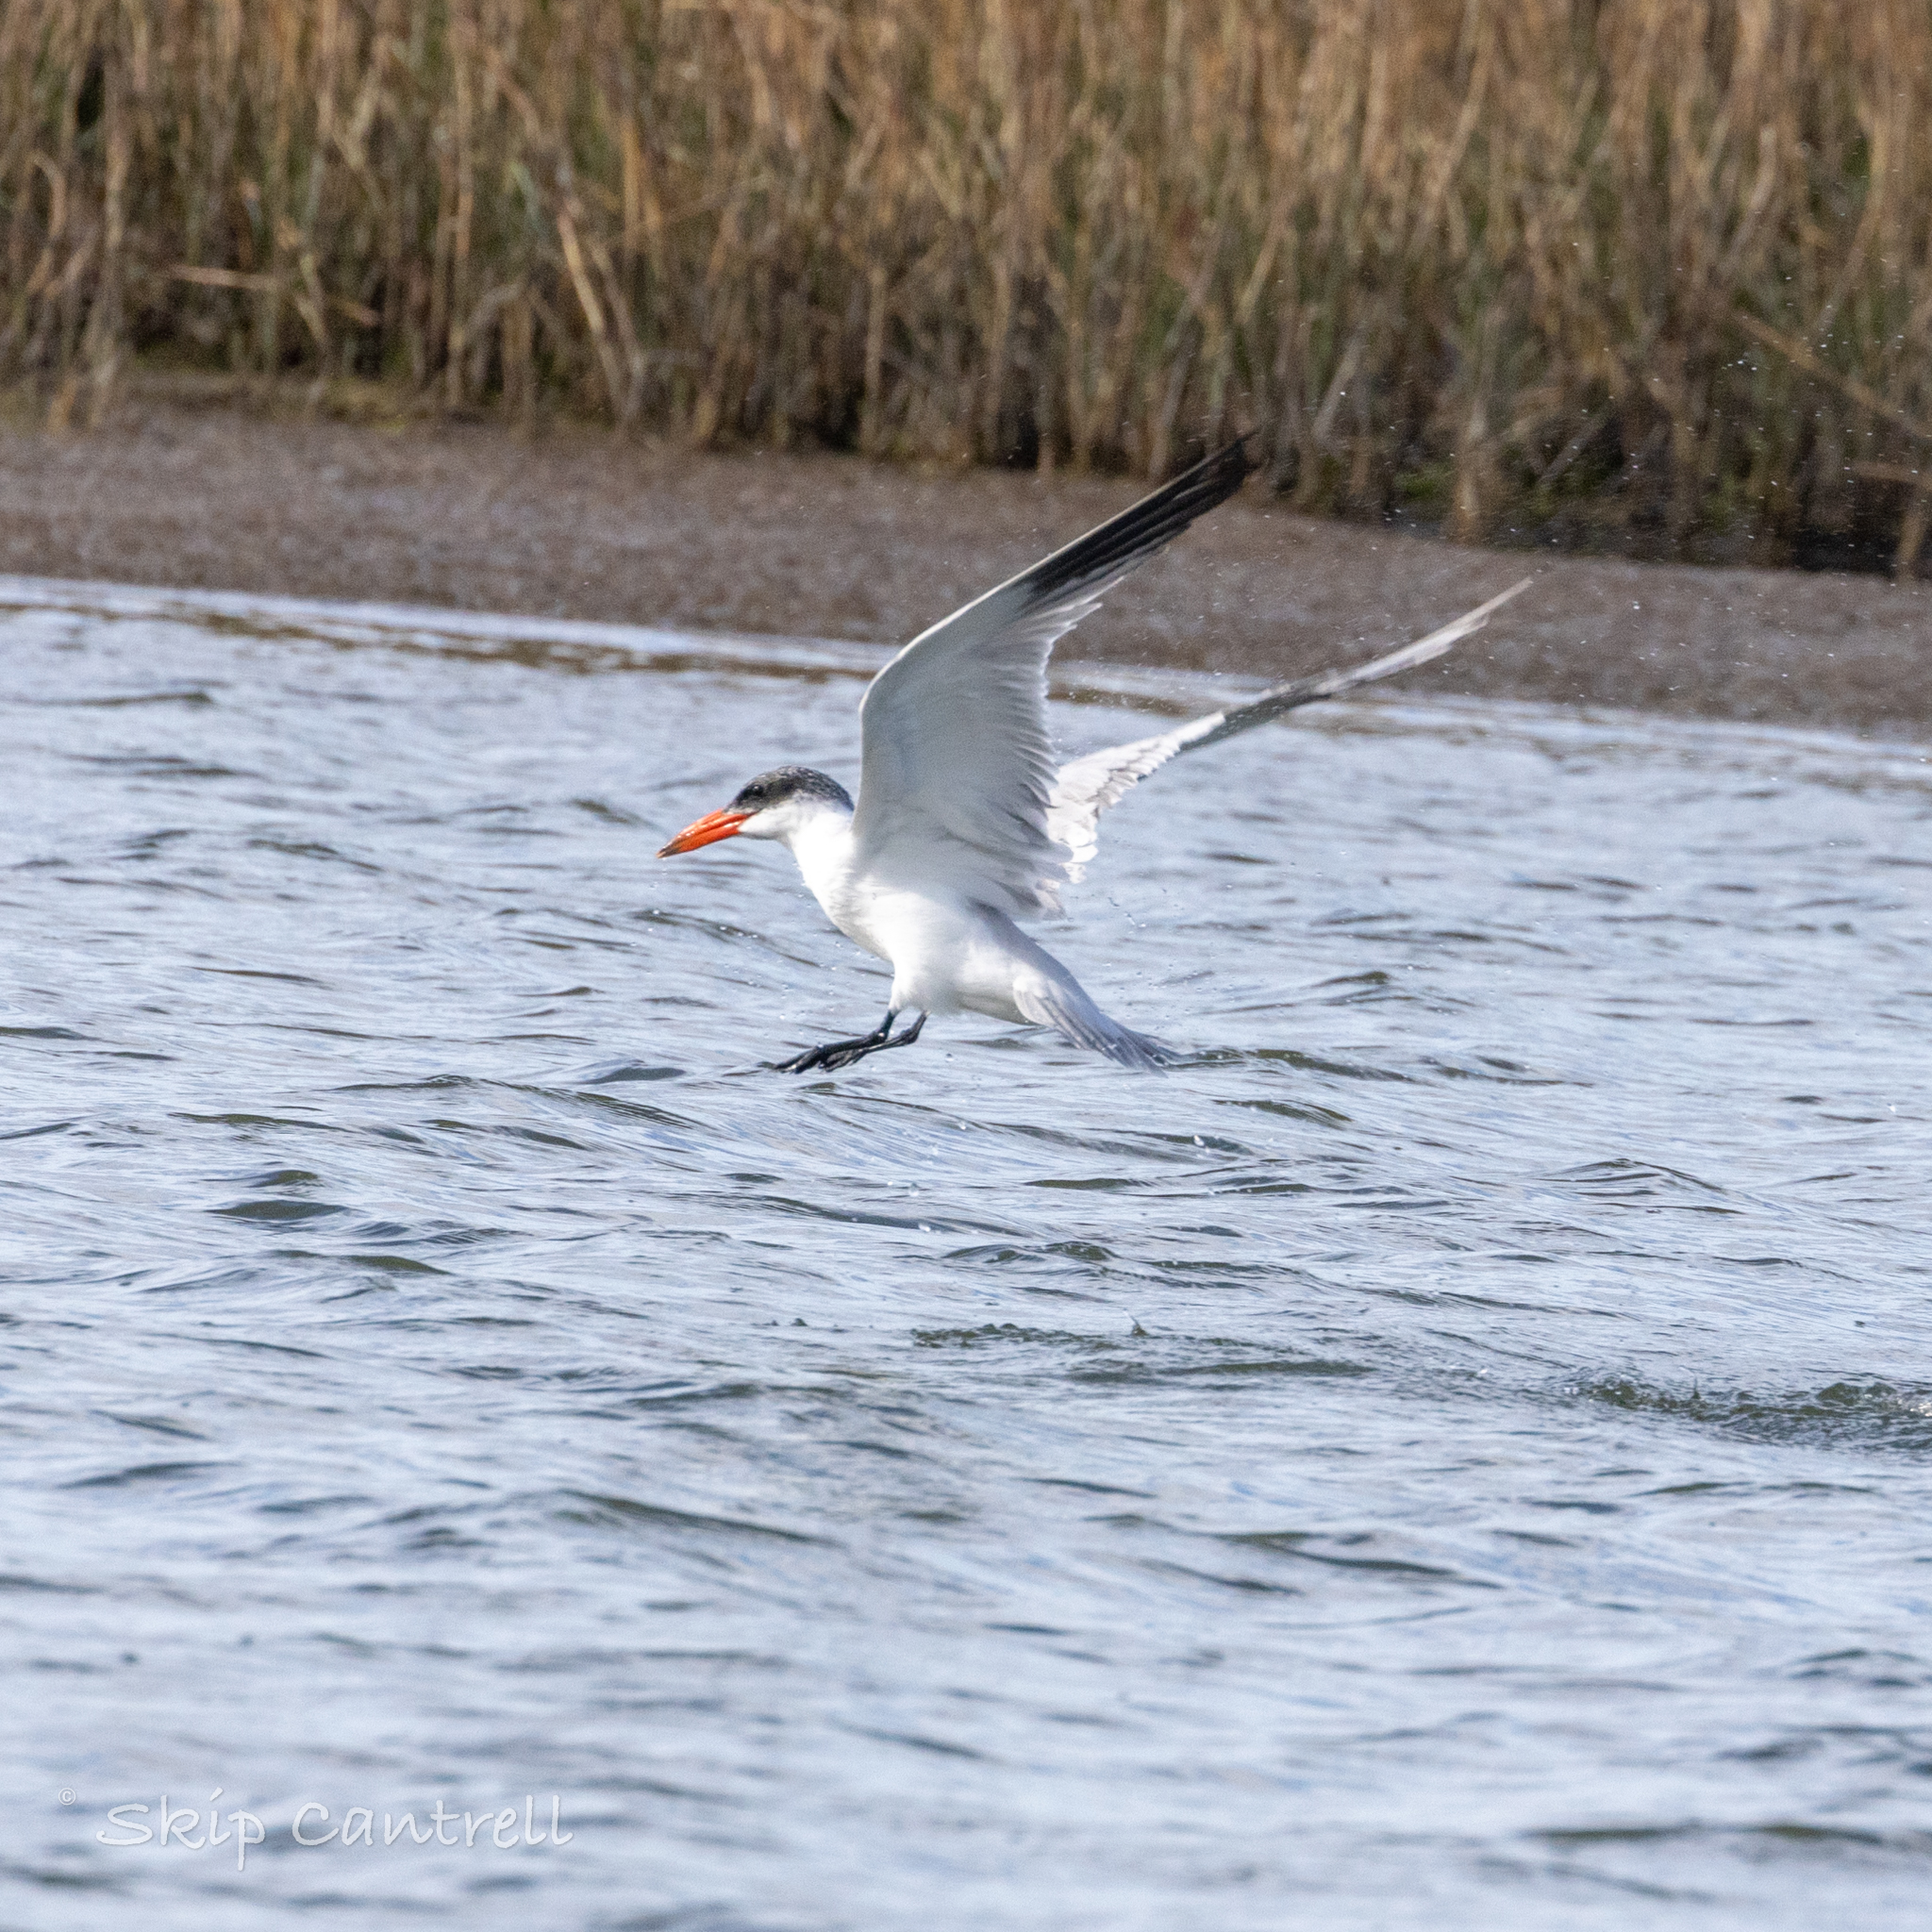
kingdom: Animalia
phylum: Chordata
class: Aves
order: Charadriiformes
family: Laridae
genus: Hydroprogne
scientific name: Hydroprogne caspia
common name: Caspian tern
